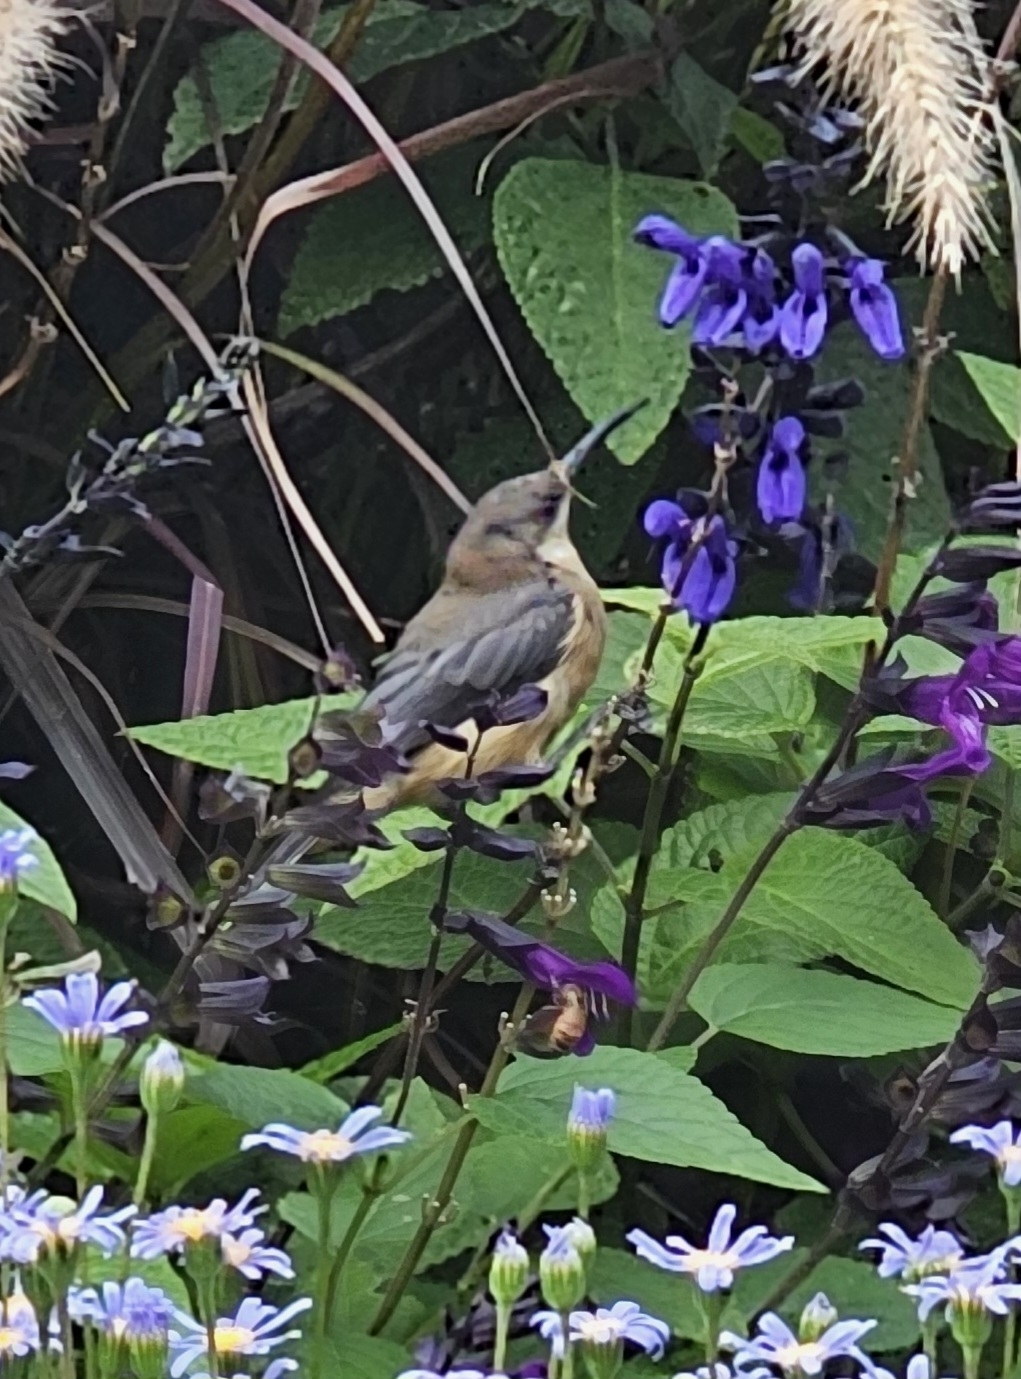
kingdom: Animalia
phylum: Chordata
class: Aves
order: Passeriformes
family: Meliphagidae
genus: Acanthorhynchus
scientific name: Acanthorhynchus tenuirostris
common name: Eastern spinebill
